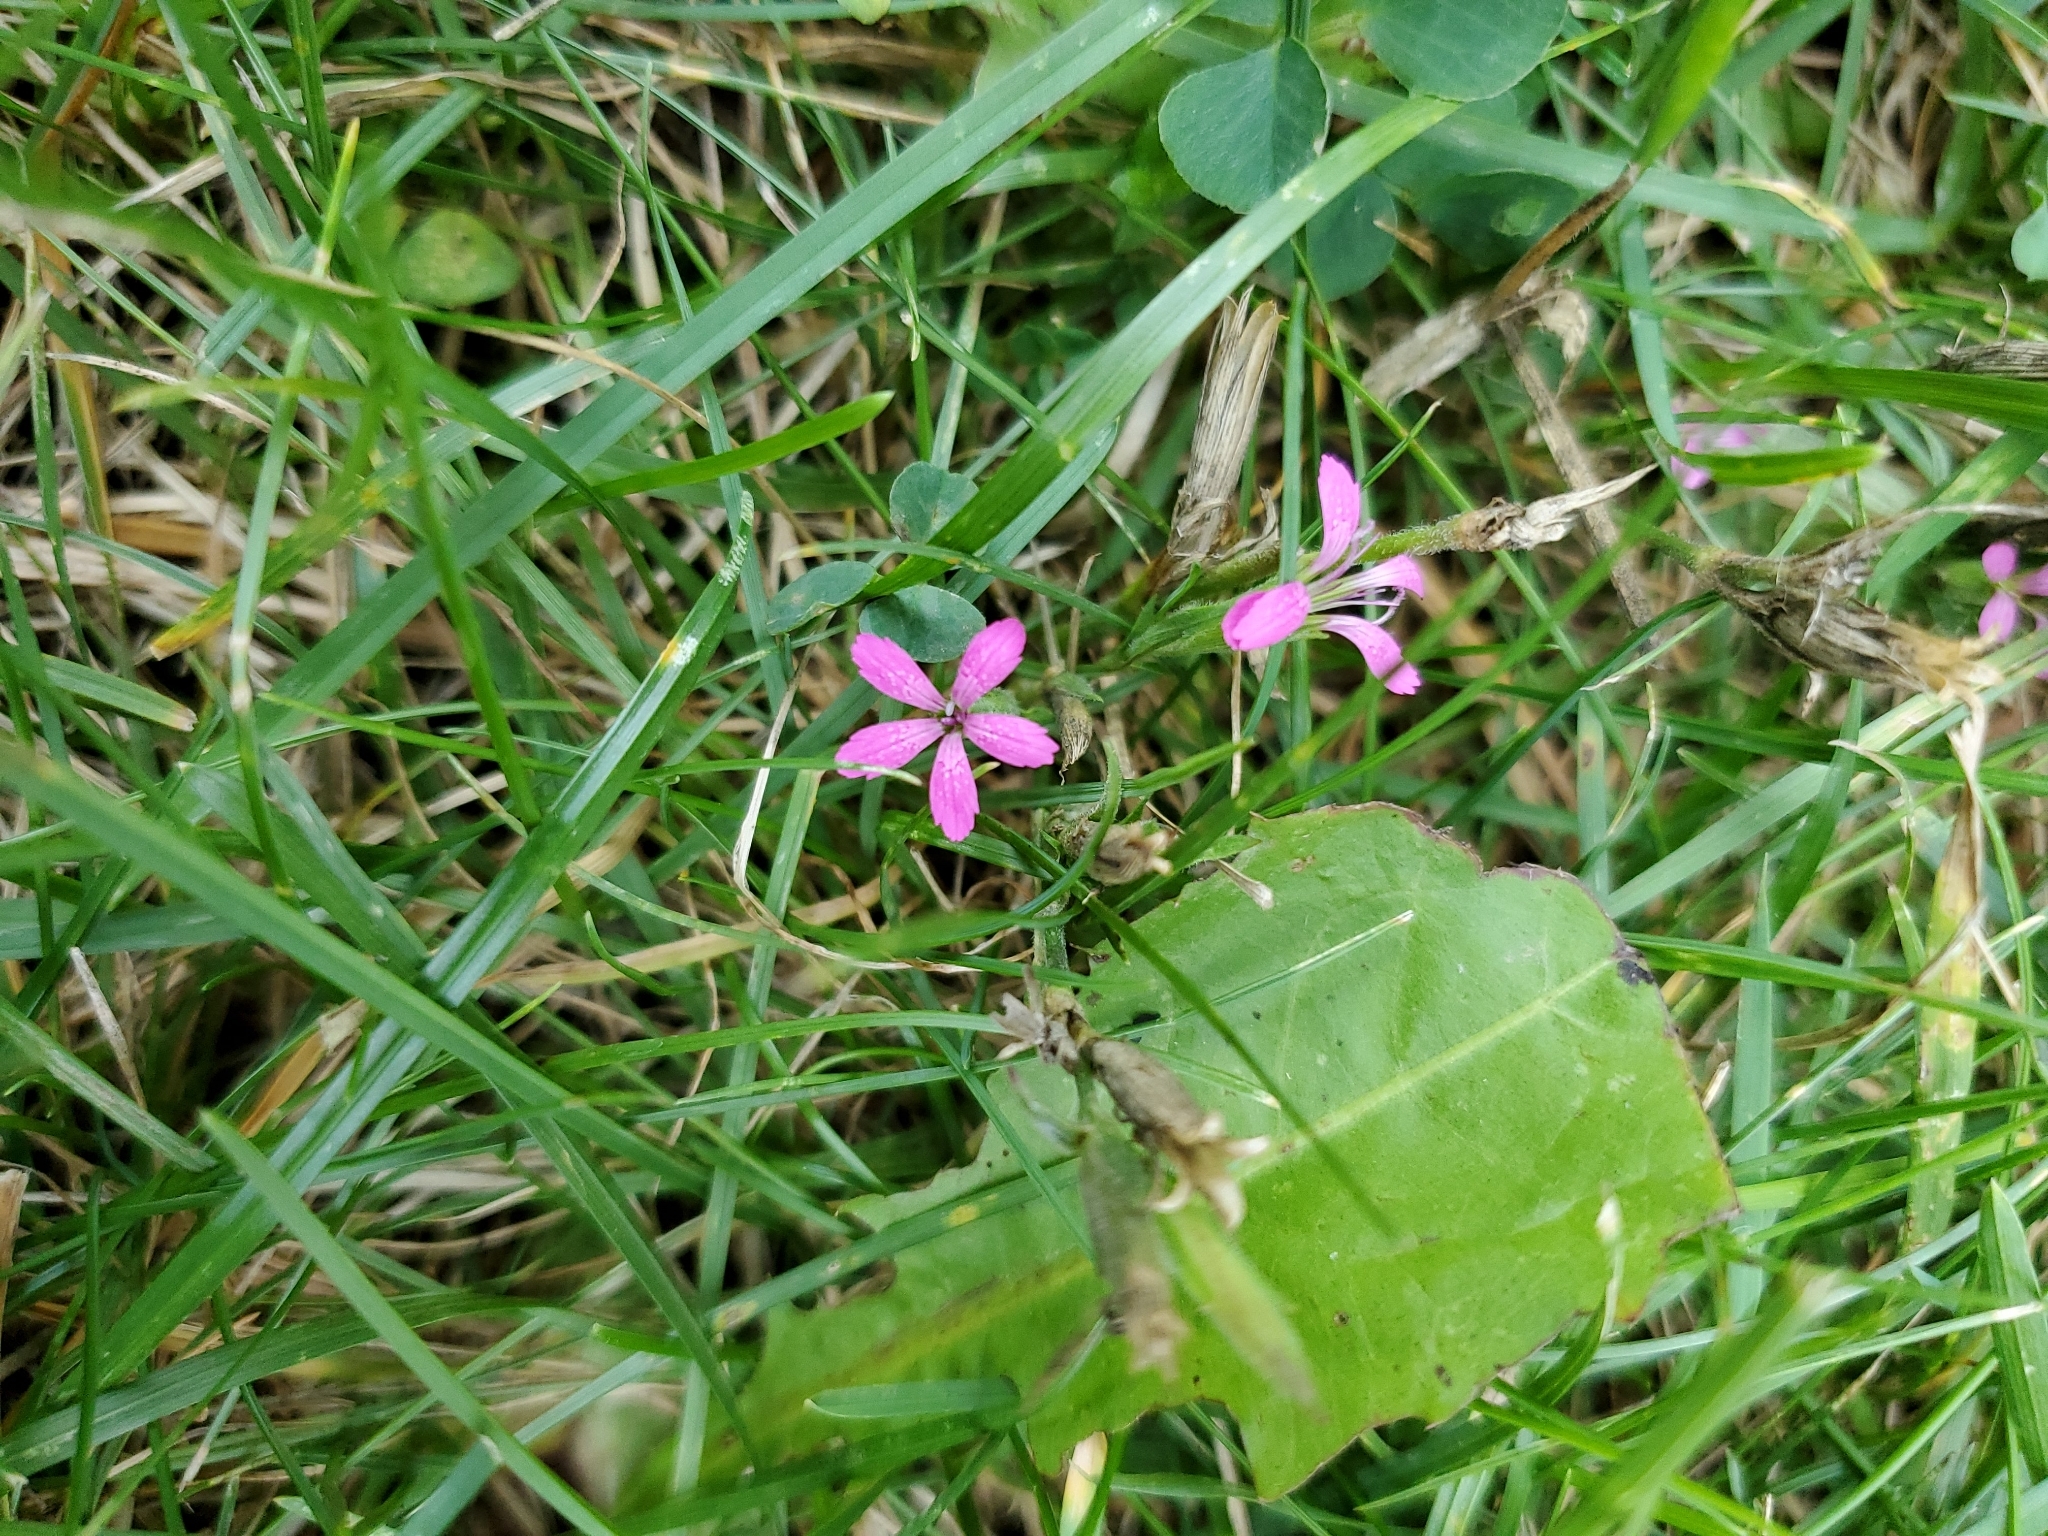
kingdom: Plantae
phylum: Tracheophyta
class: Magnoliopsida
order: Caryophyllales
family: Caryophyllaceae
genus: Dianthus
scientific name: Dianthus armeria
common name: Deptford pink
